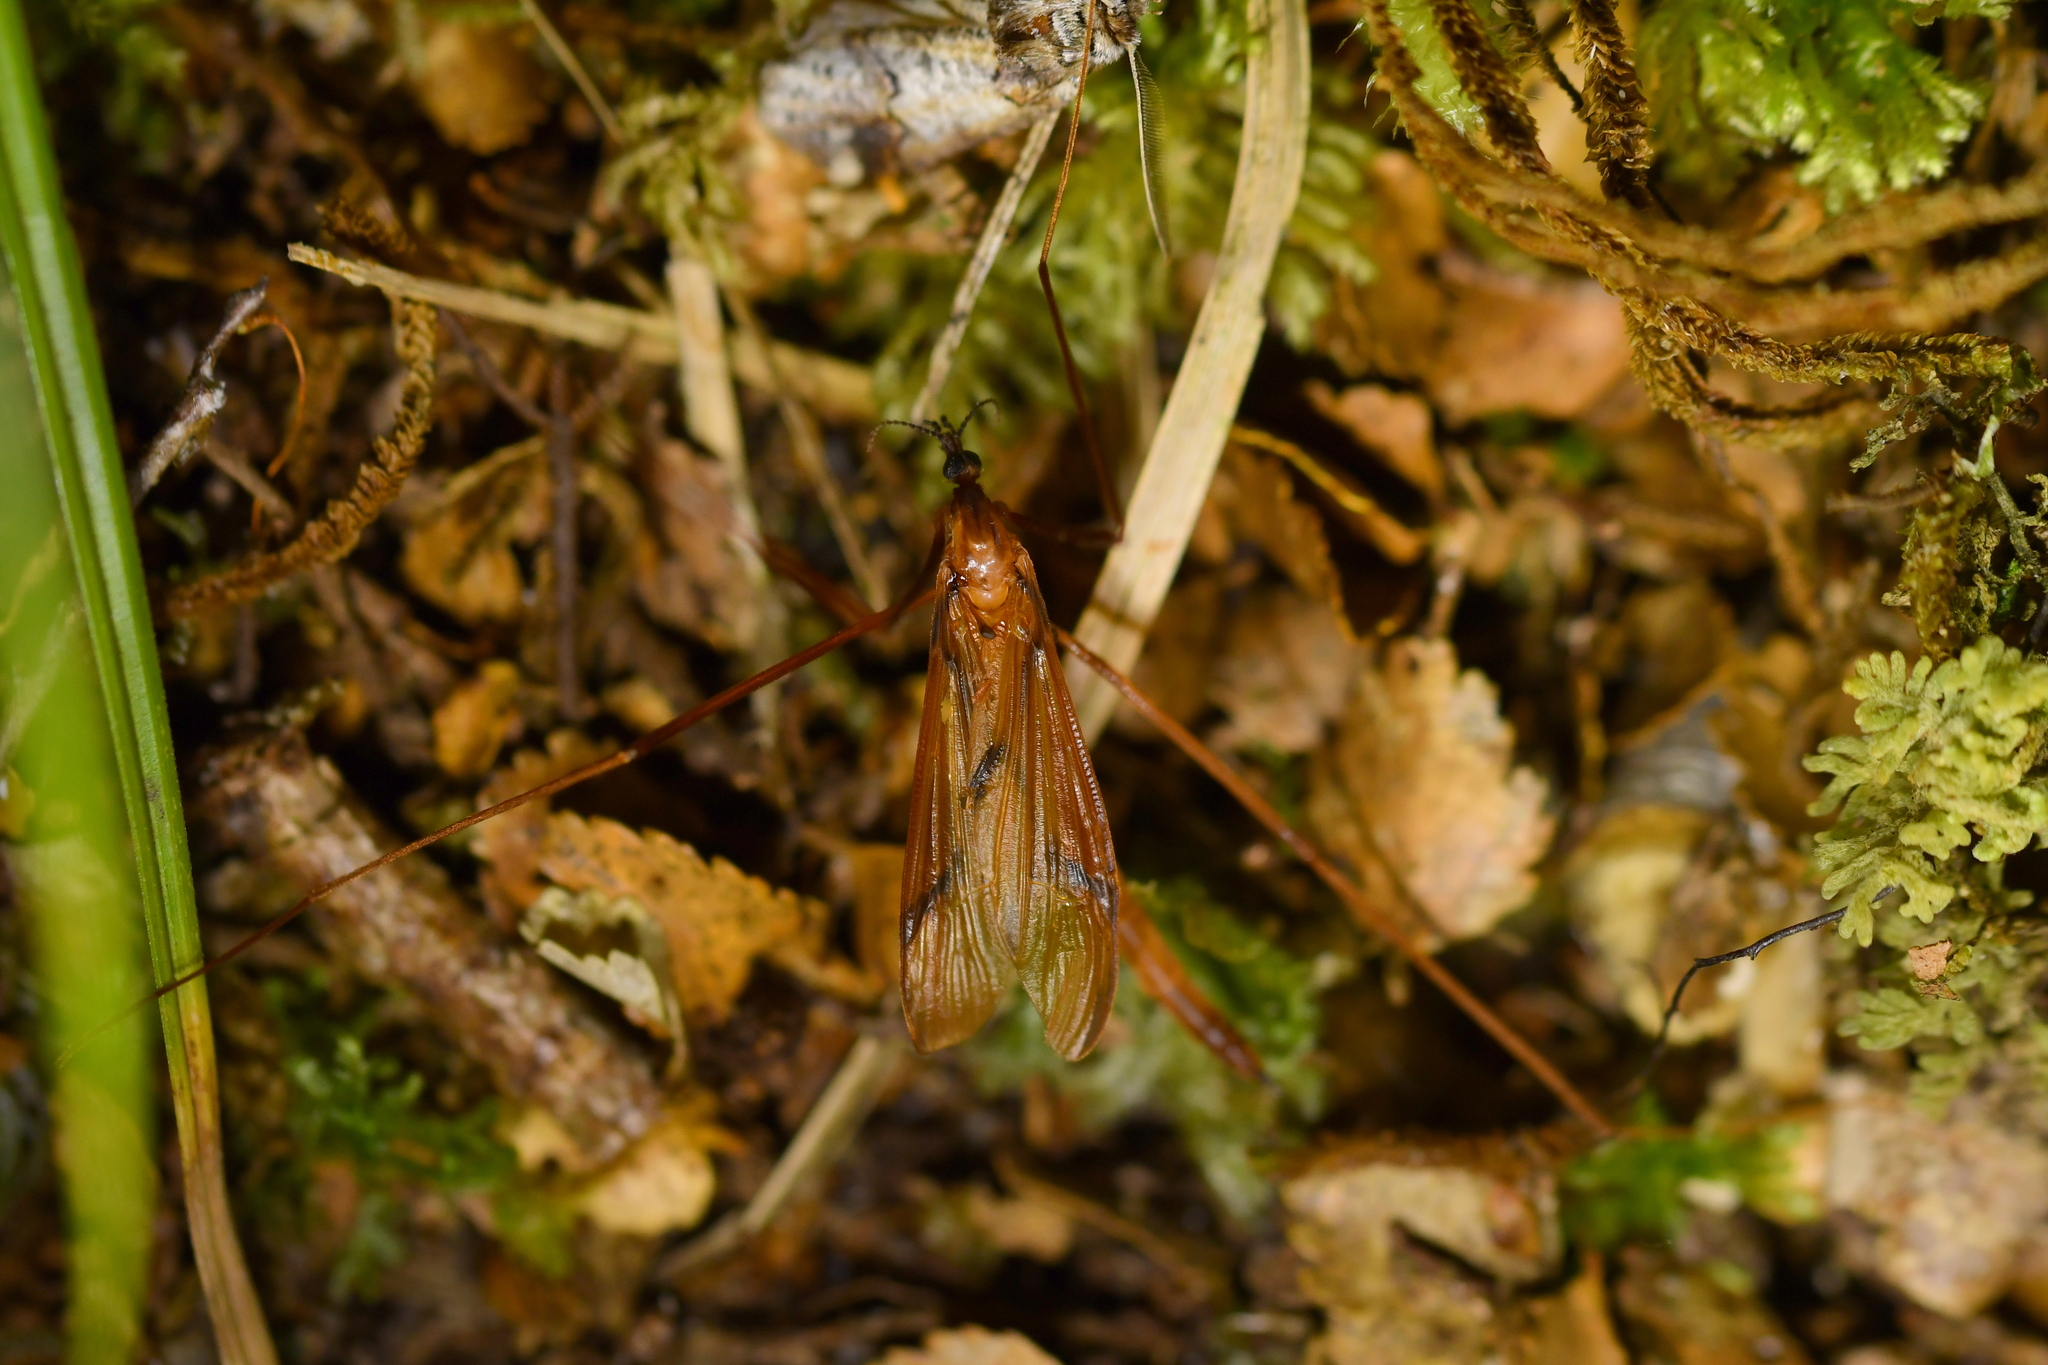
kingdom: Animalia
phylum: Arthropoda
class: Insecta
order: Diptera
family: Limoniidae
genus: Sigmatomera
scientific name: Sigmatomera rufa
